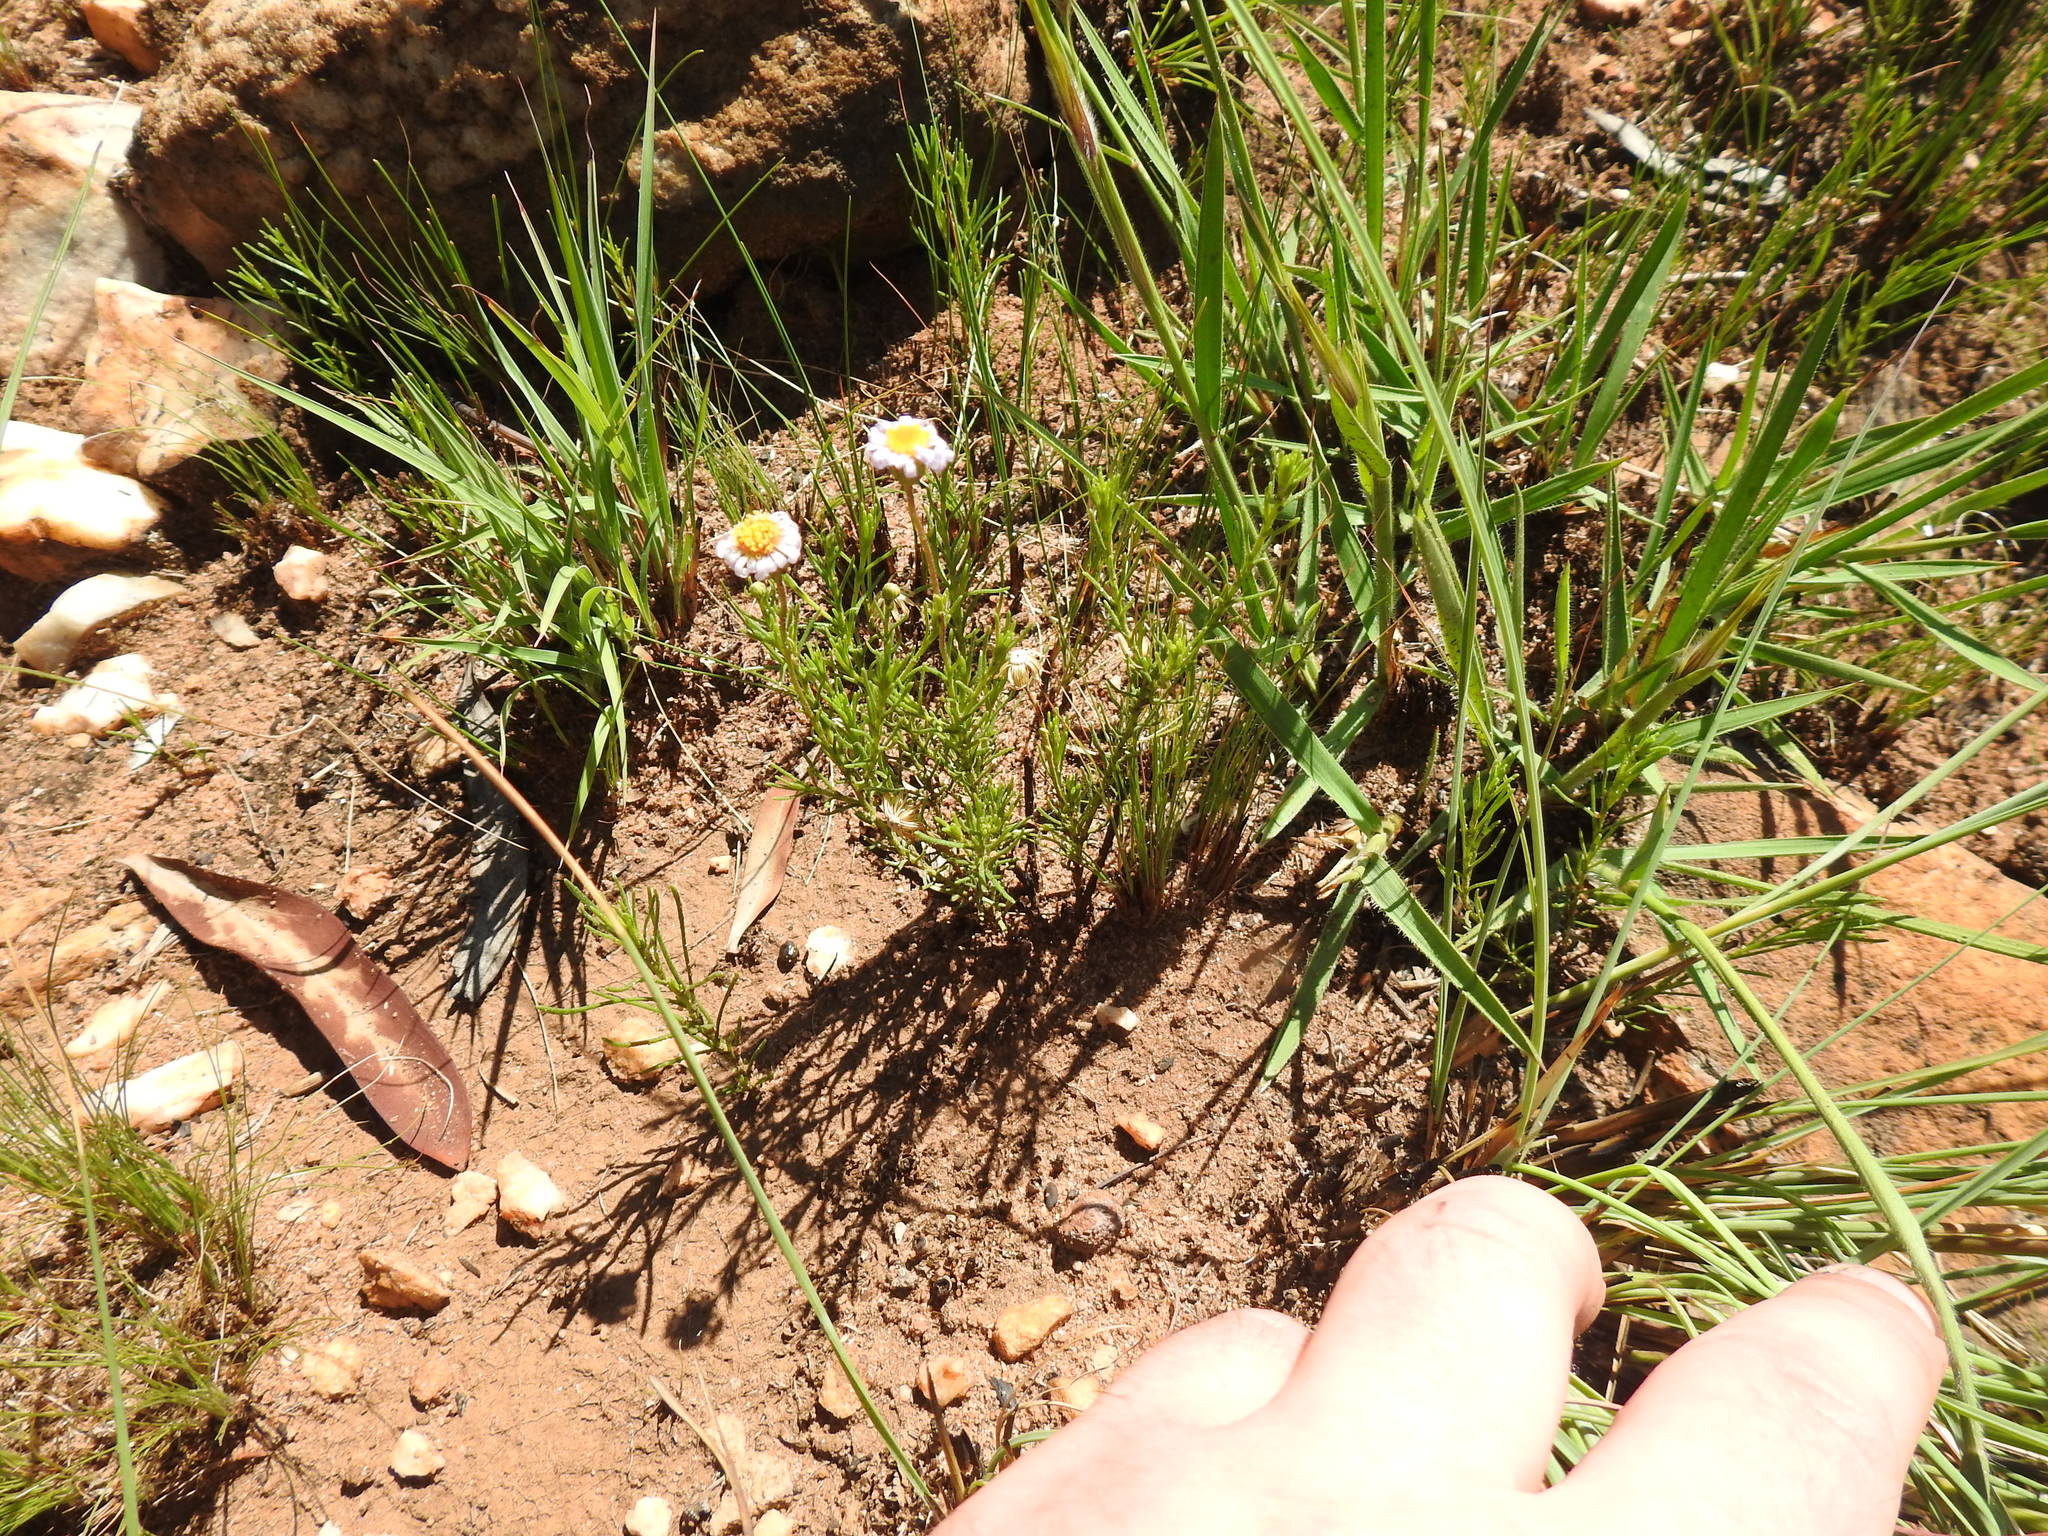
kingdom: Plantae
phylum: Tracheophyta
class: Magnoliopsida
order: Asterales
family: Asteraceae
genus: Felicia
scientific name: Felicia muricata
